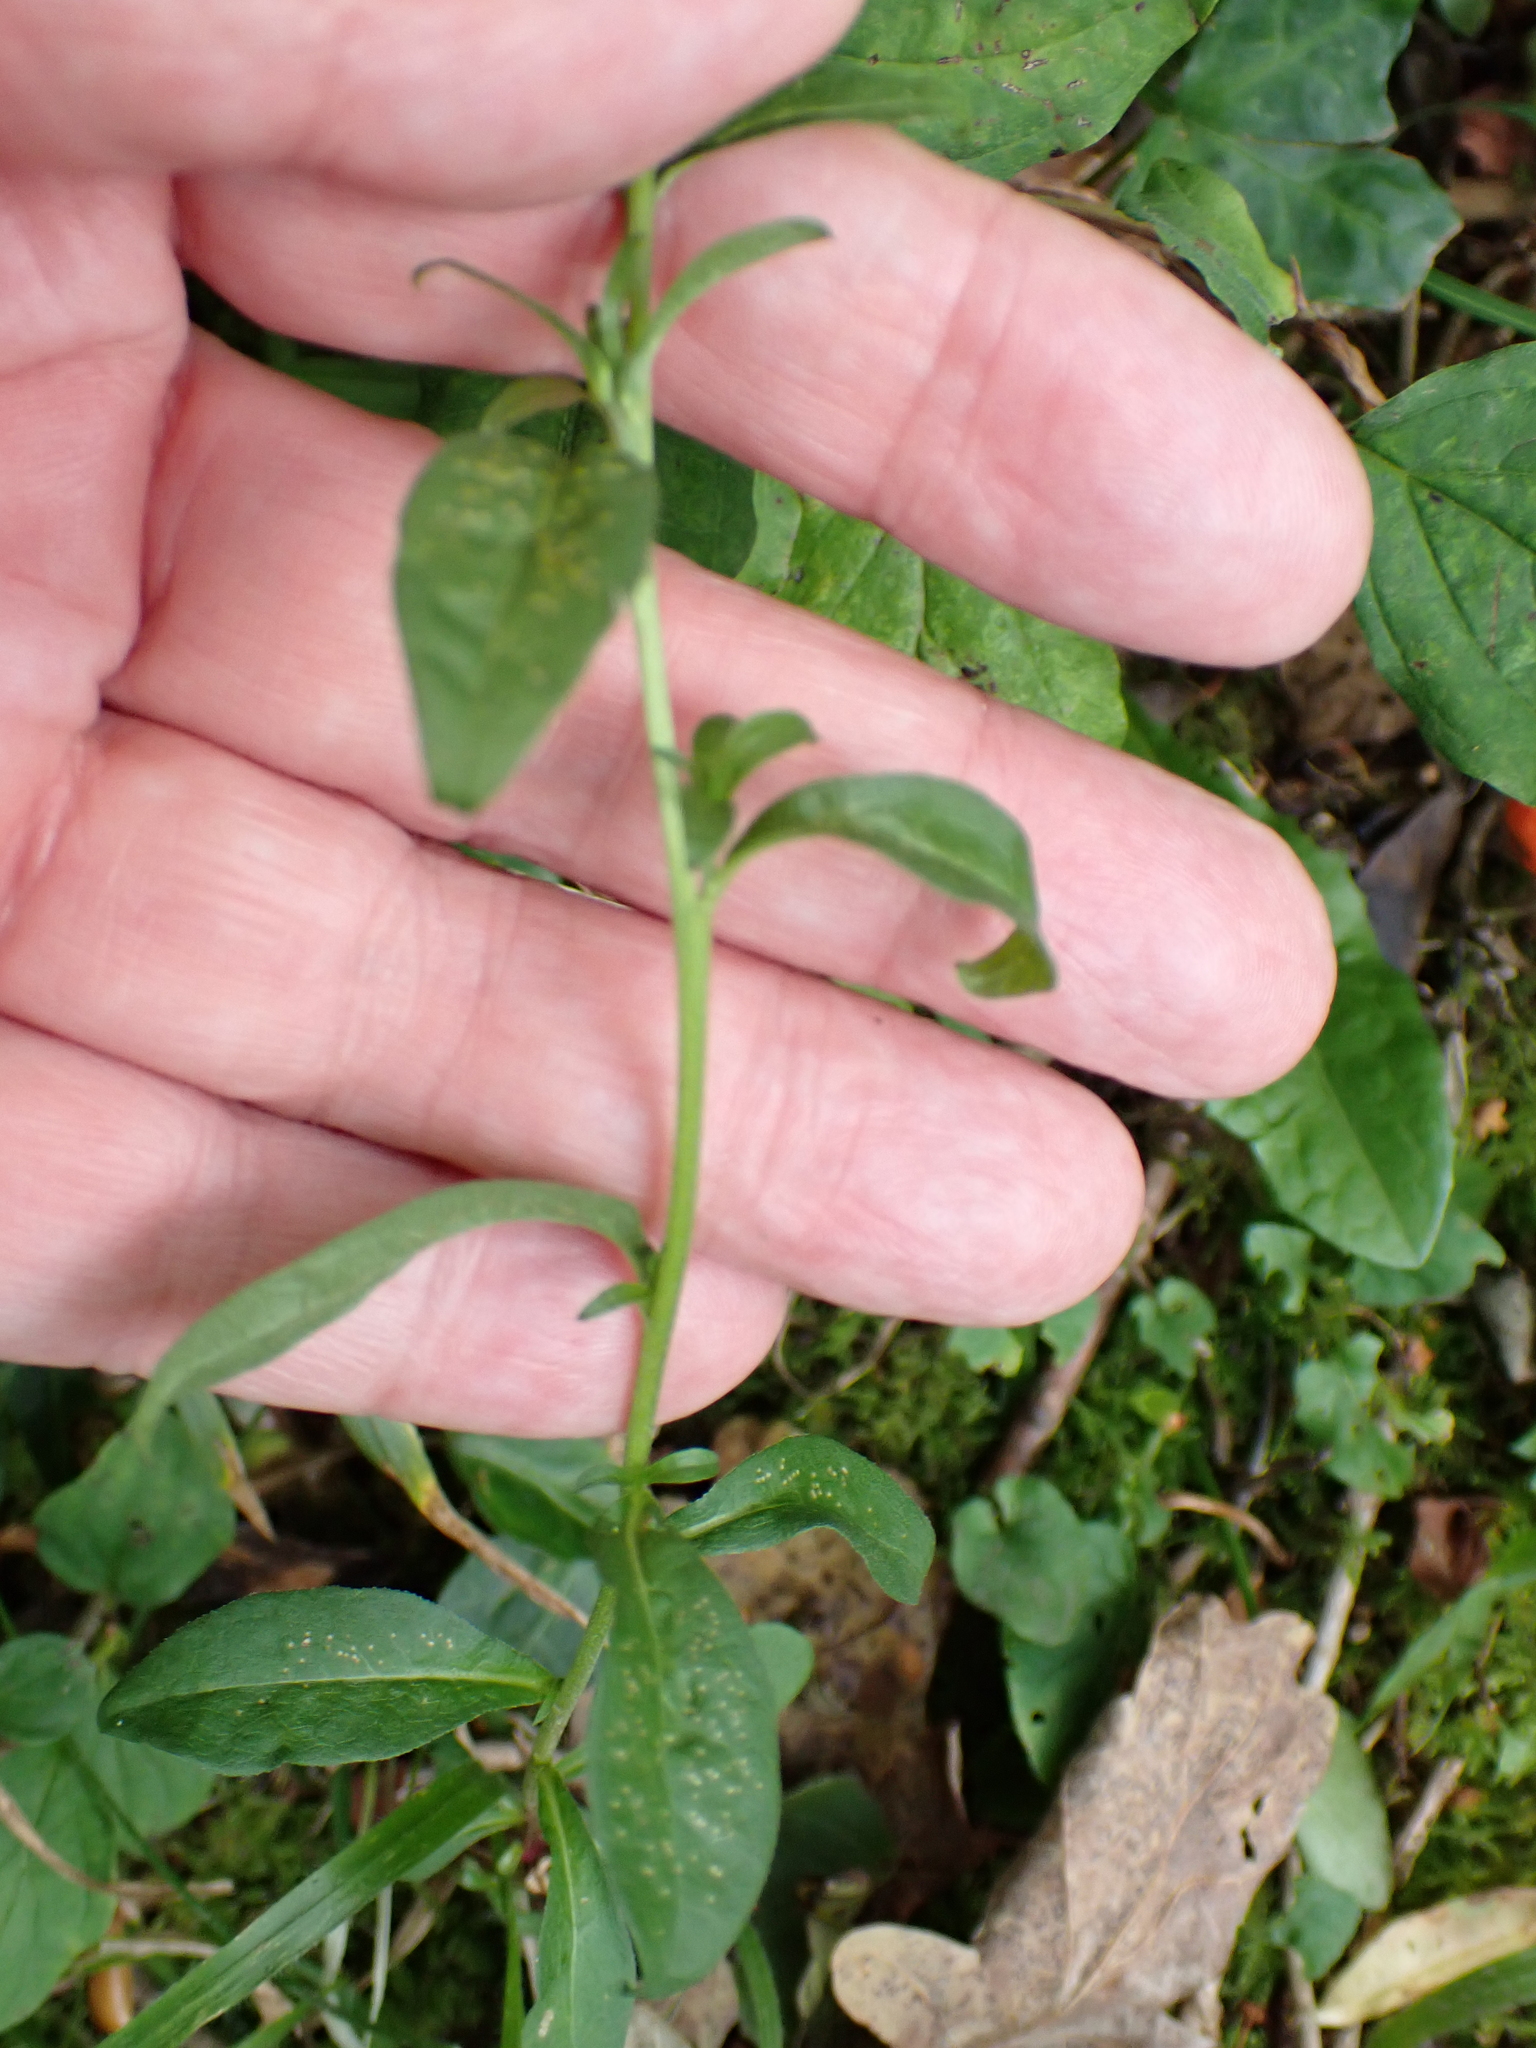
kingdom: Plantae
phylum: Tracheophyta
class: Magnoliopsida
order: Asterales
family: Asteraceae
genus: Solidago
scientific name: Solidago virgaurea
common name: Goldenrod
